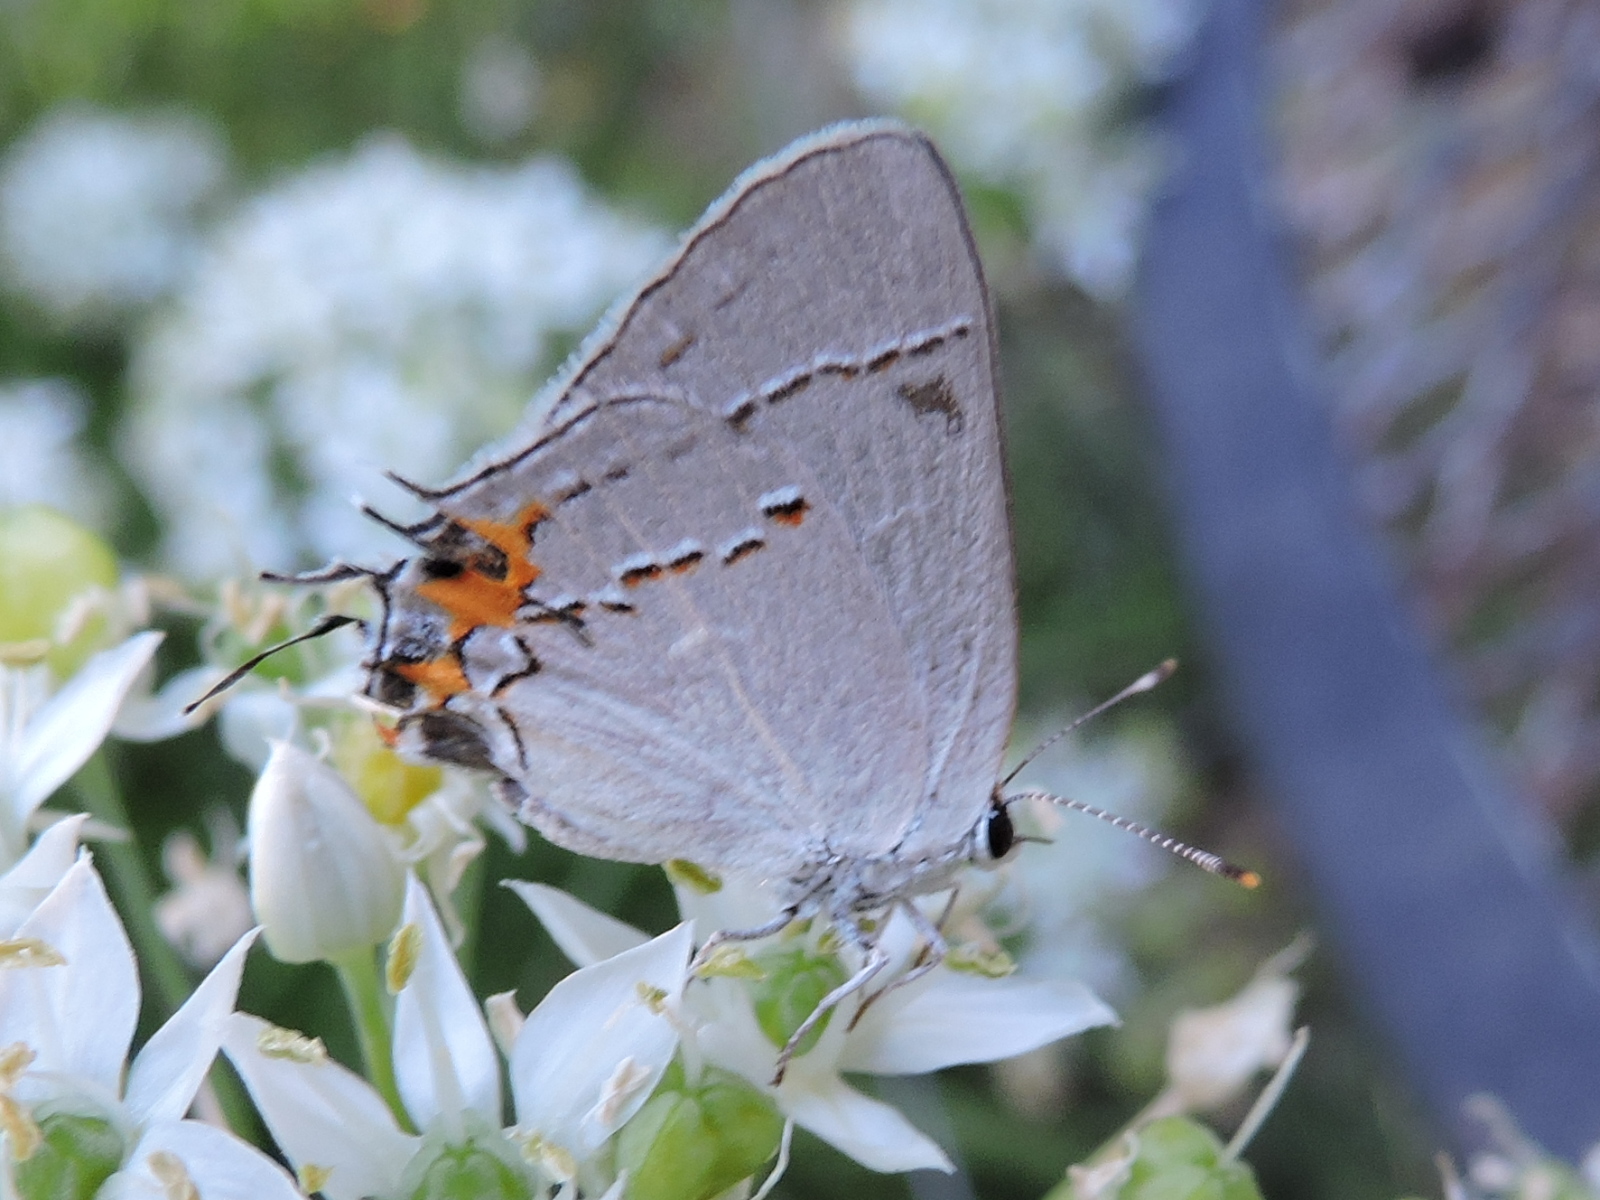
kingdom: Animalia
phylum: Arthropoda
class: Insecta
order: Lepidoptera
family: Lycaenidae
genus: Strymon
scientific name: Strymon melinus
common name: Gray hairstreak
